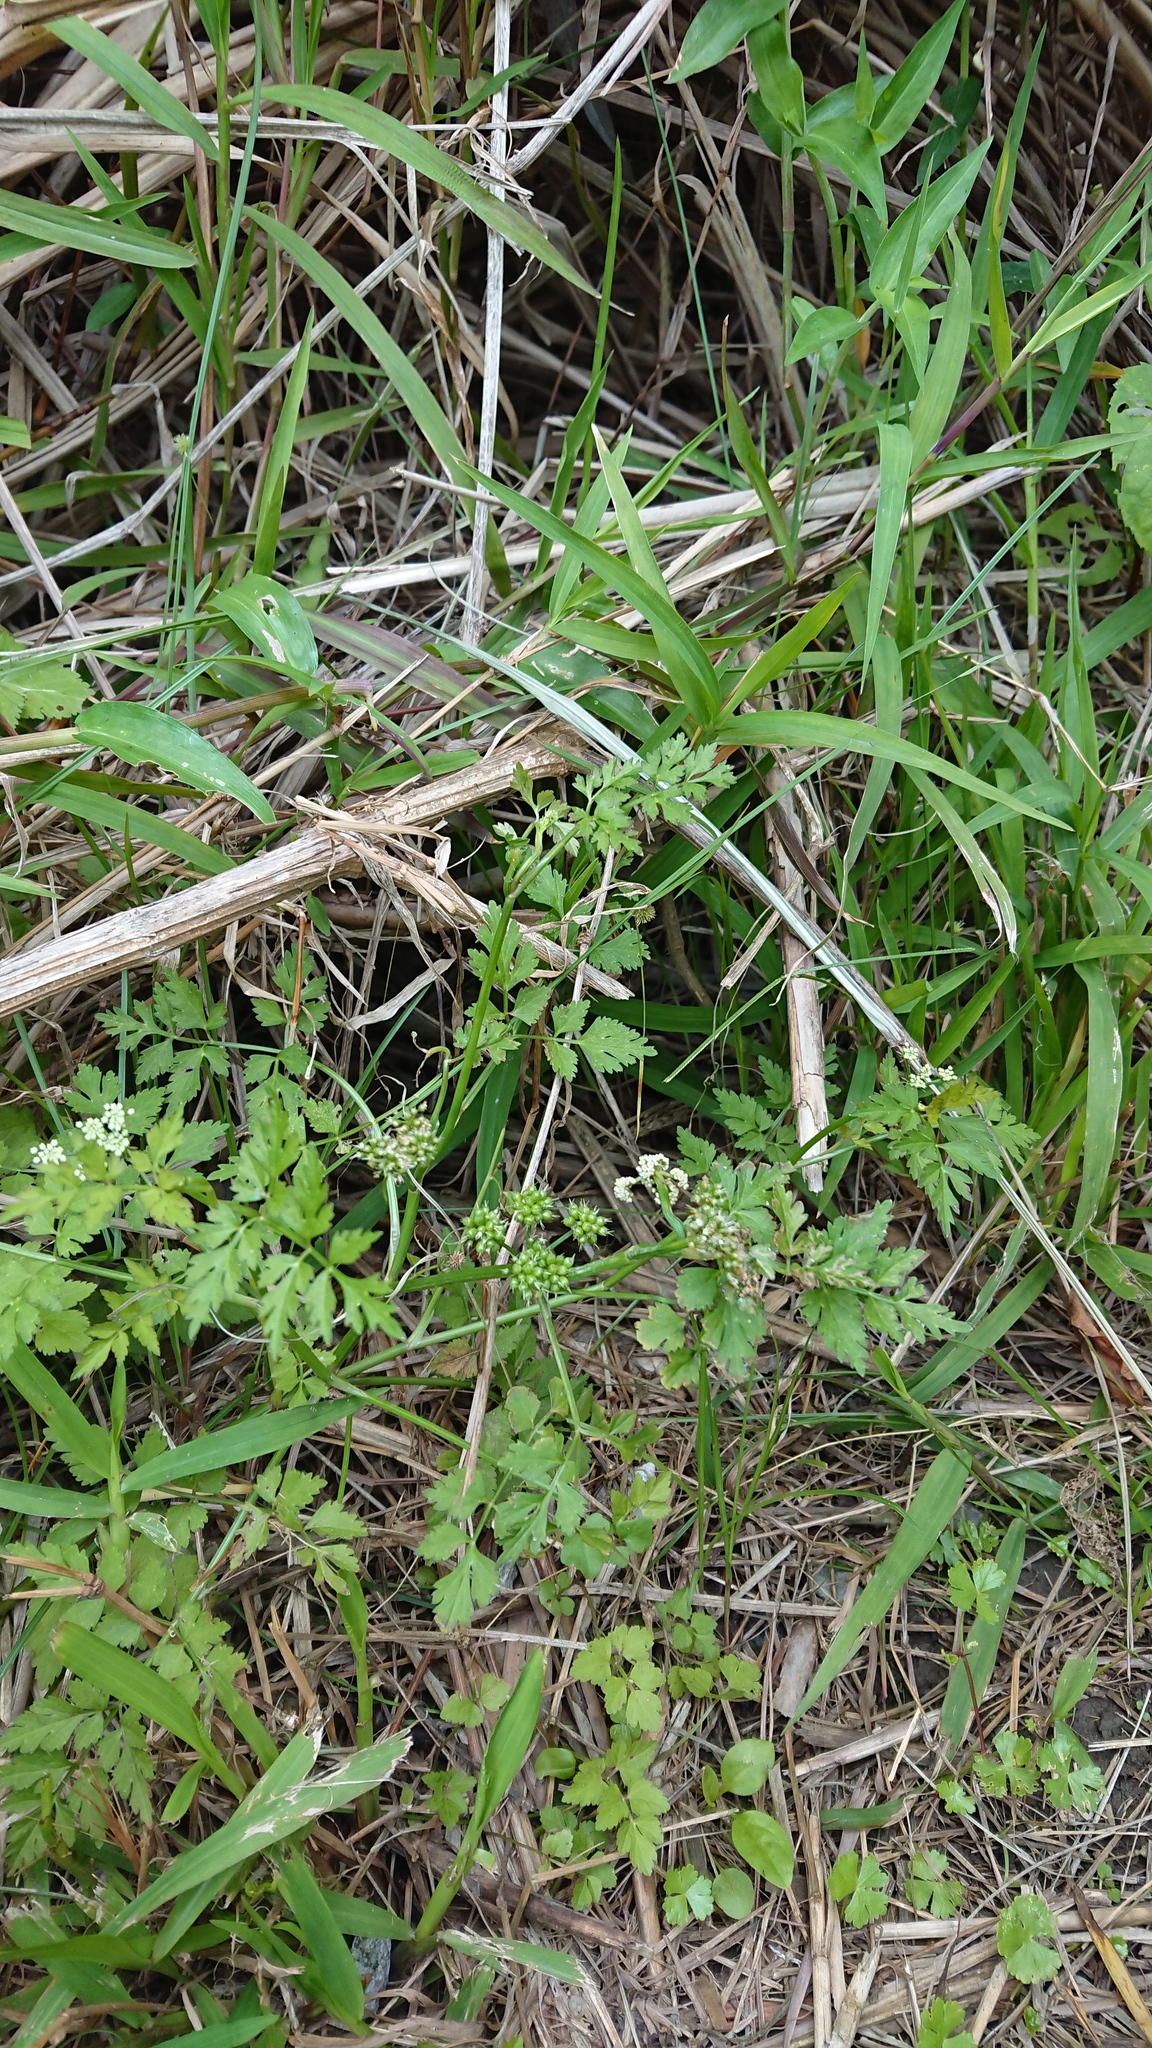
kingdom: Plantae
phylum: Tracheophyta
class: Magnoliopsida
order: Apiales
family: Apiaceae
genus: Oenanthe
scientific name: Oenanthe javanica
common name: Java water-dropwort
